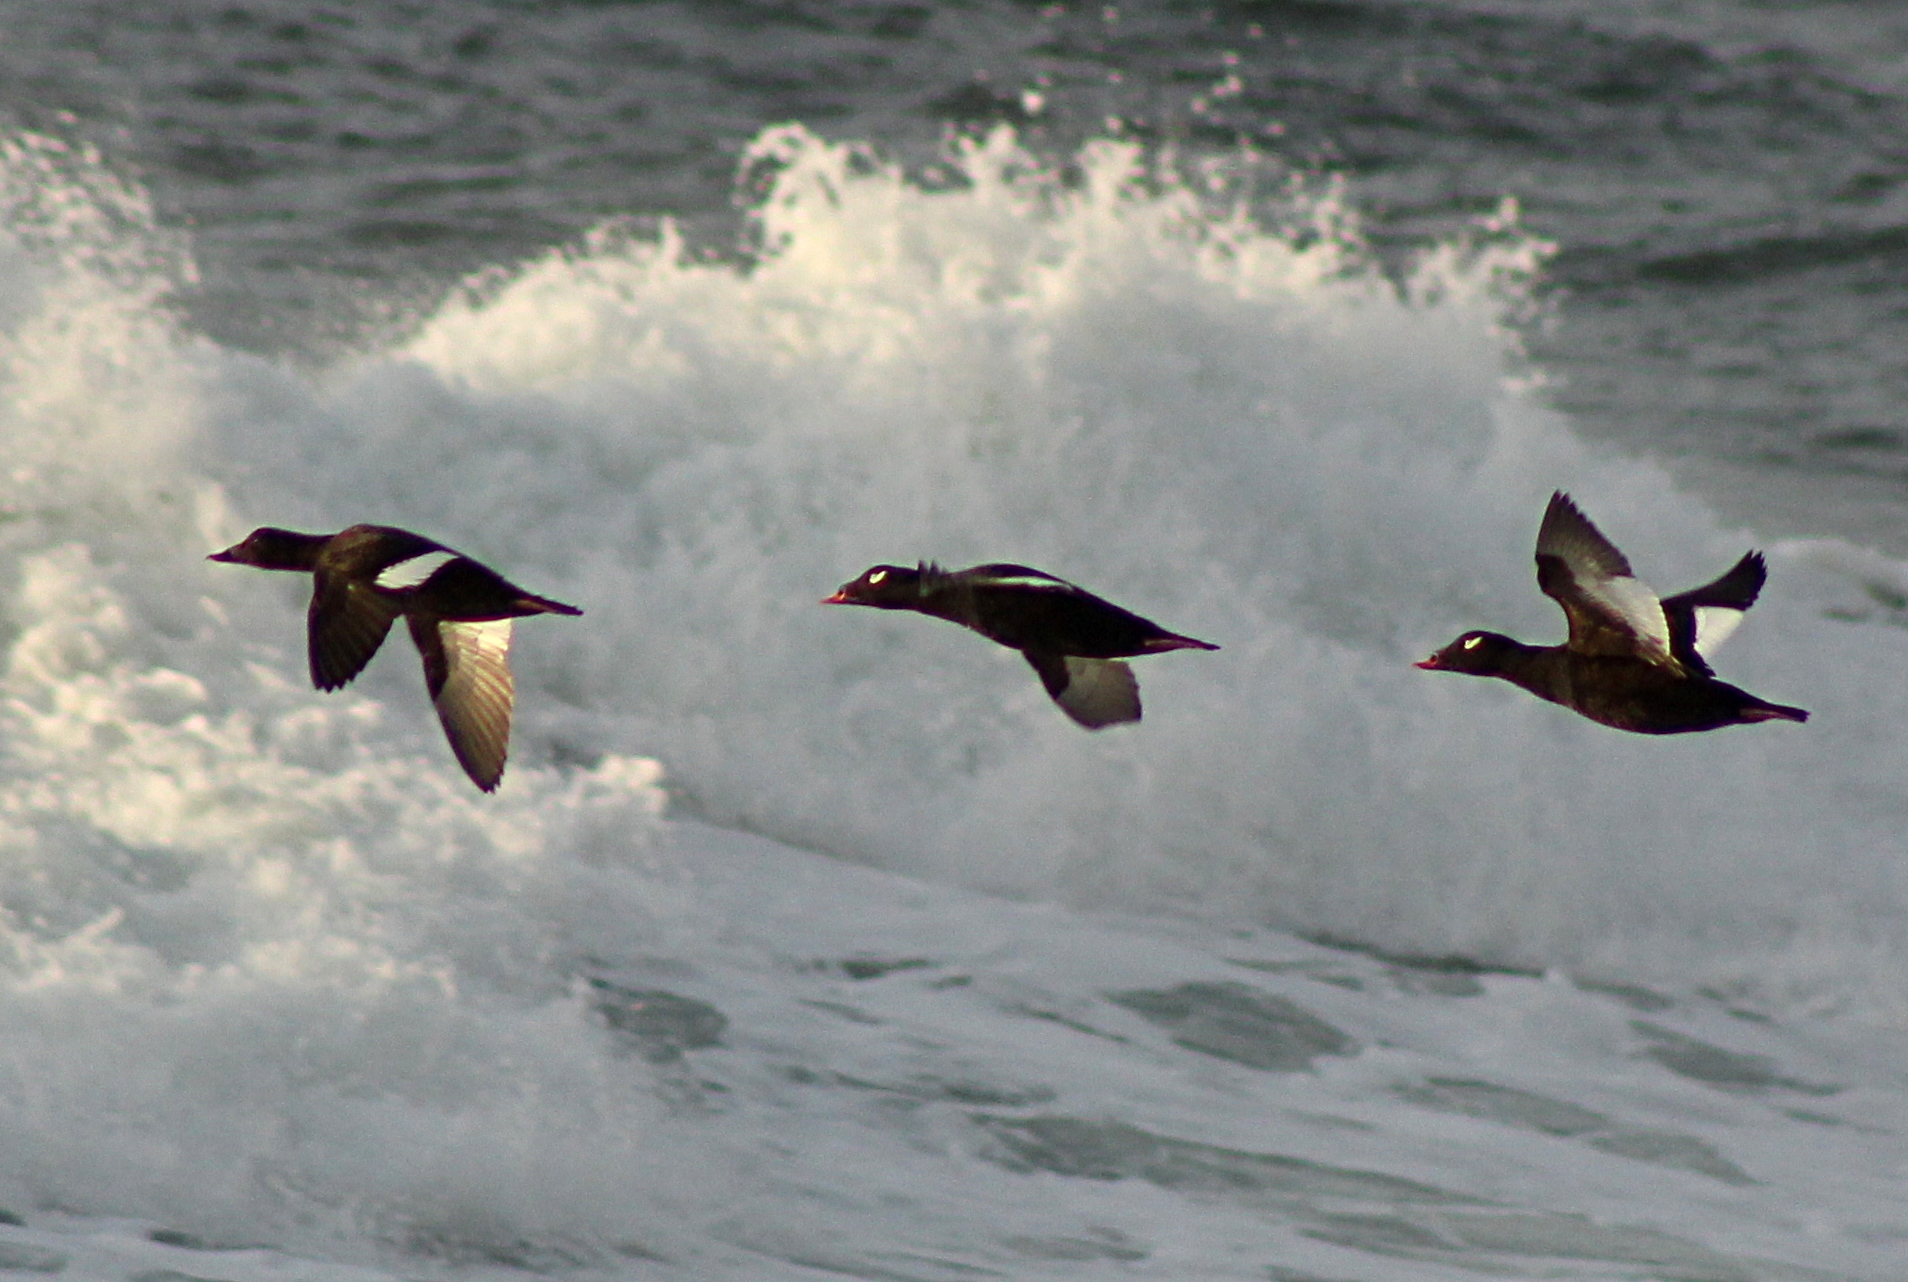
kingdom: Animalia
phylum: Chordata
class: Aves
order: Anseriformes
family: Anatidae
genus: Melanitta
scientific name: Melanitta deglandi
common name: White-winged scoter
